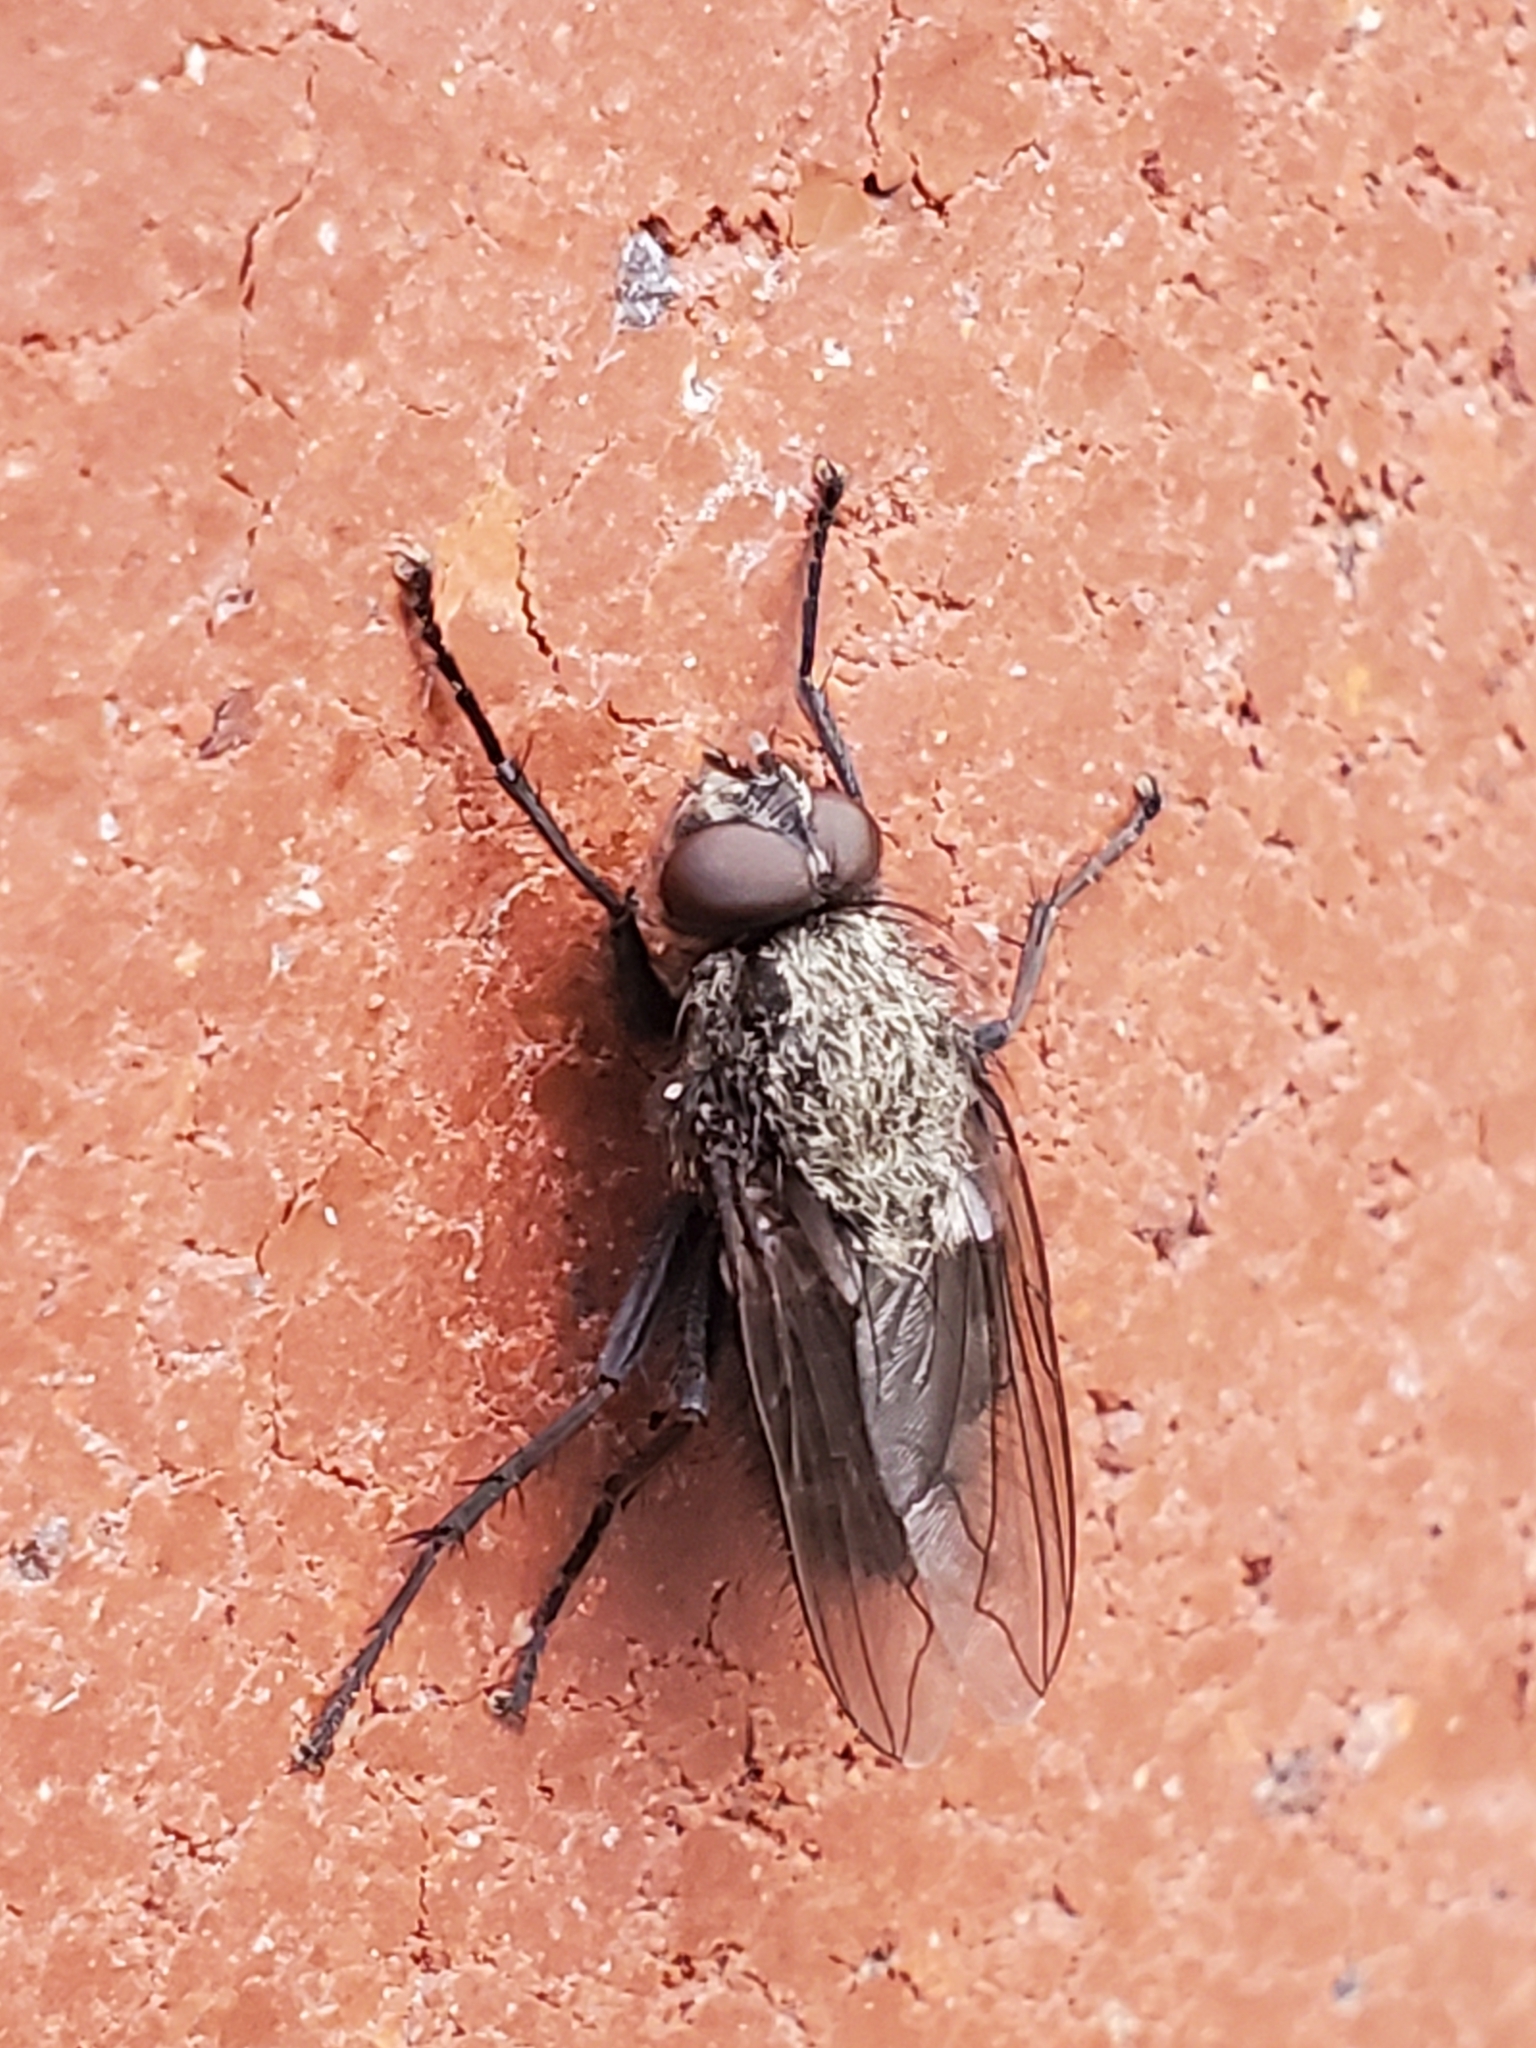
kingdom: Animalia
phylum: Arthropoda
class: Insecta
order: Diptera
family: Polleniidae
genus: Pollenia
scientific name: Pollenia
